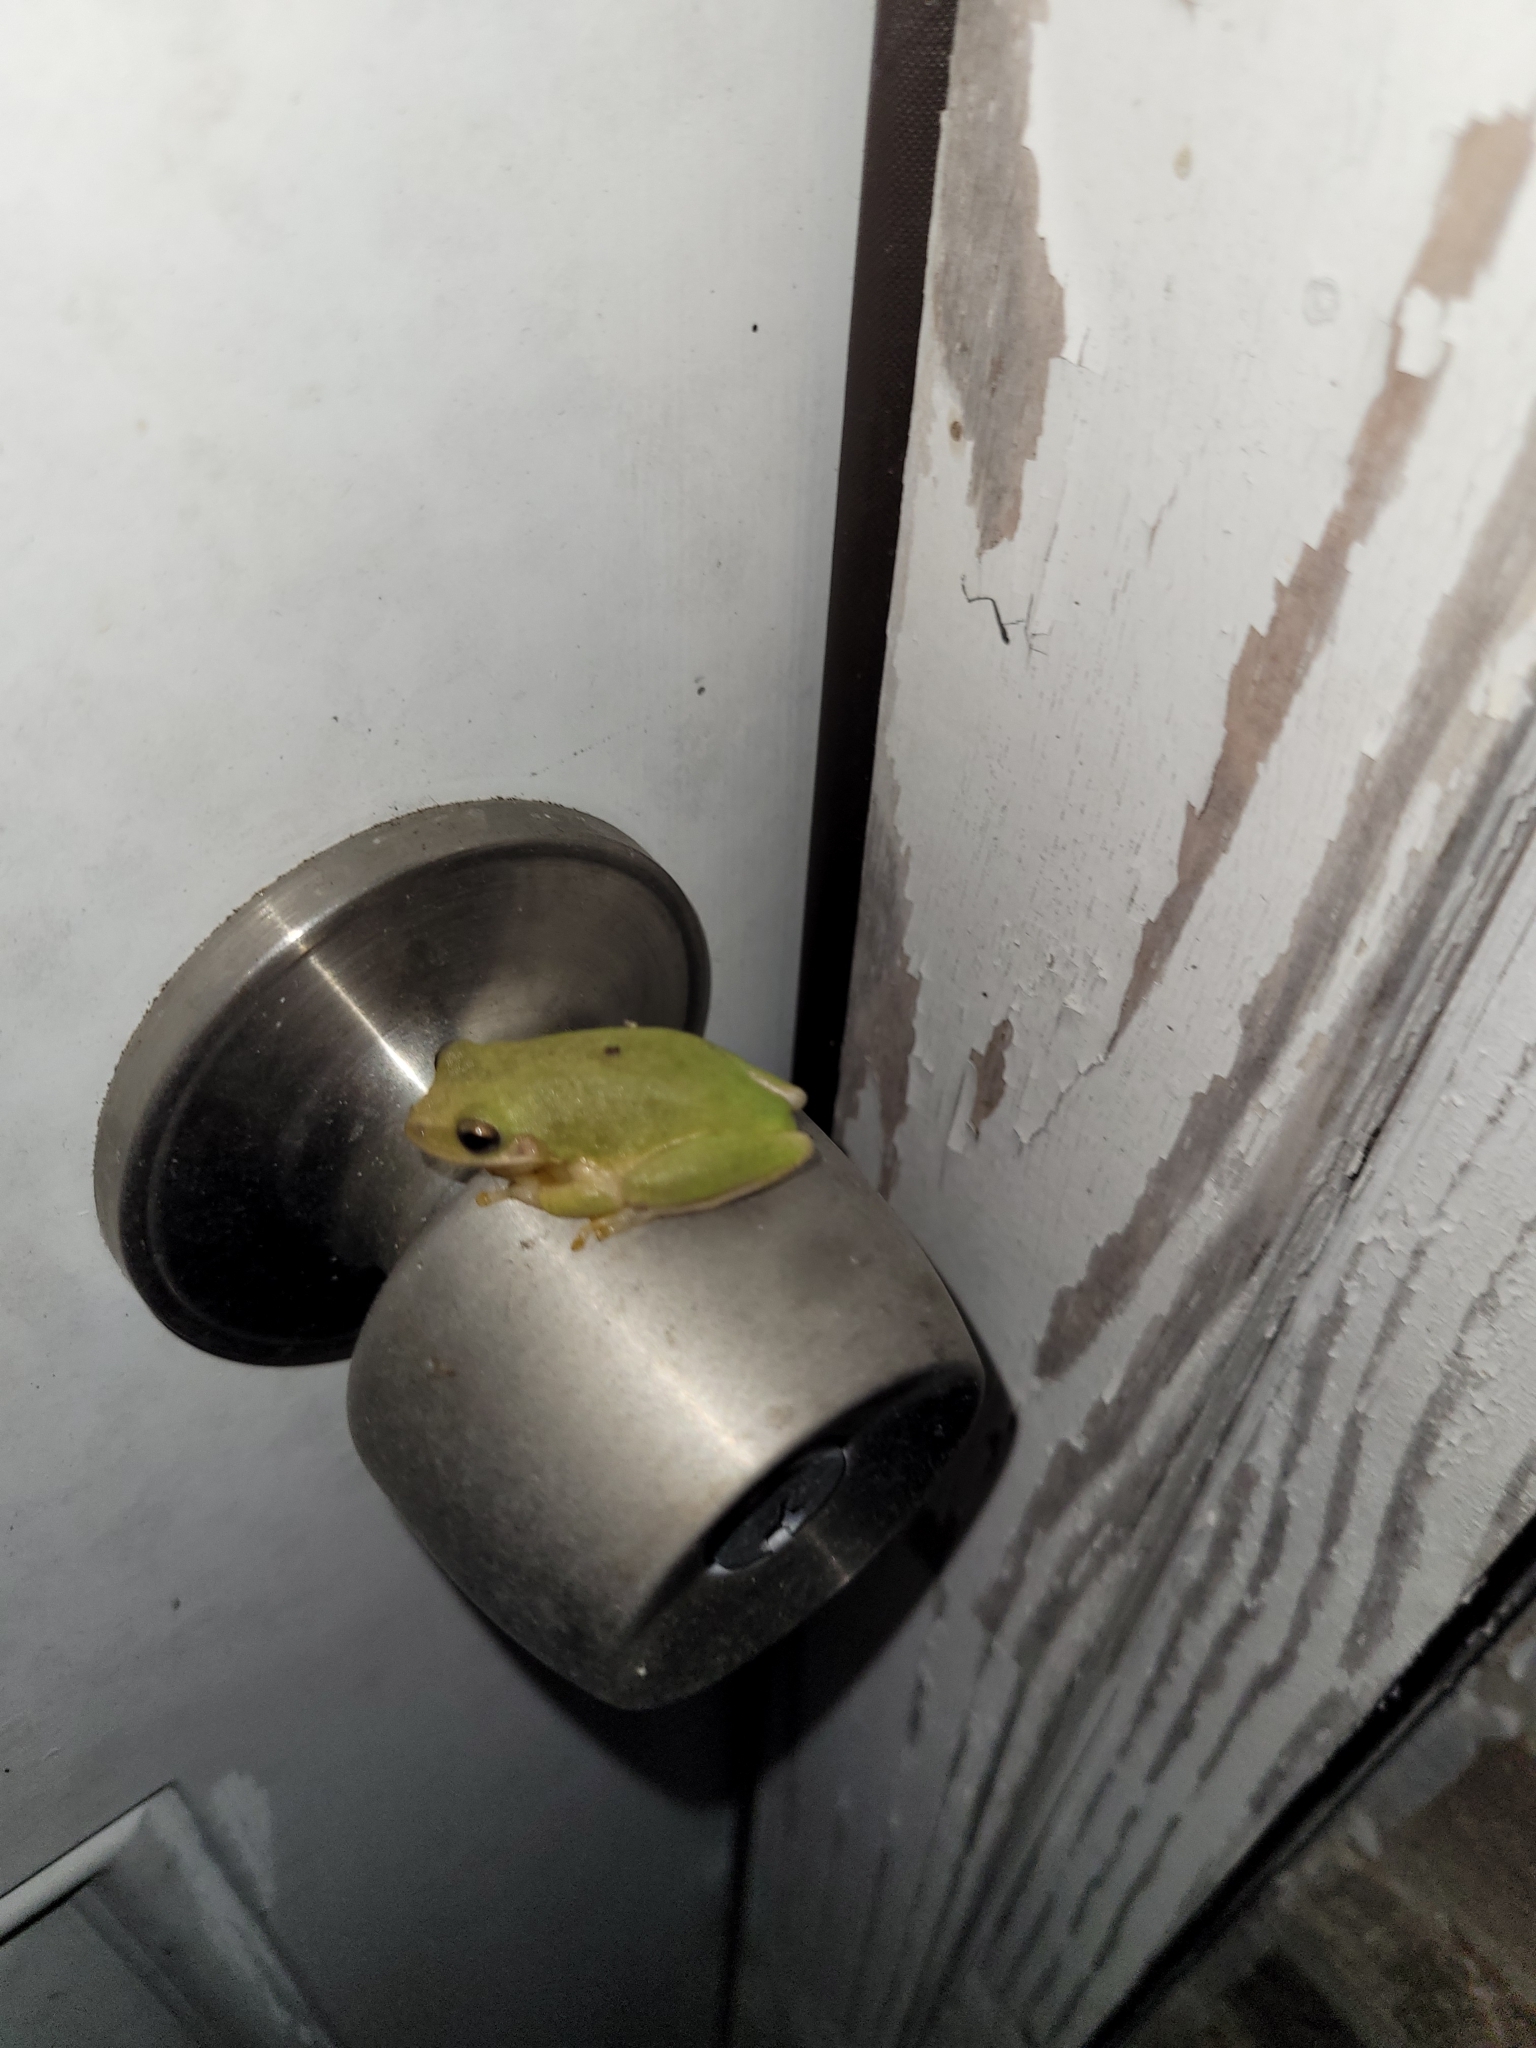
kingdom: Animalia
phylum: Chordata
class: Amphibia
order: Anura
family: Hylidae
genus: Dryophytes
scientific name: Dryophytes squirellus
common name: Squirrel treefrog
